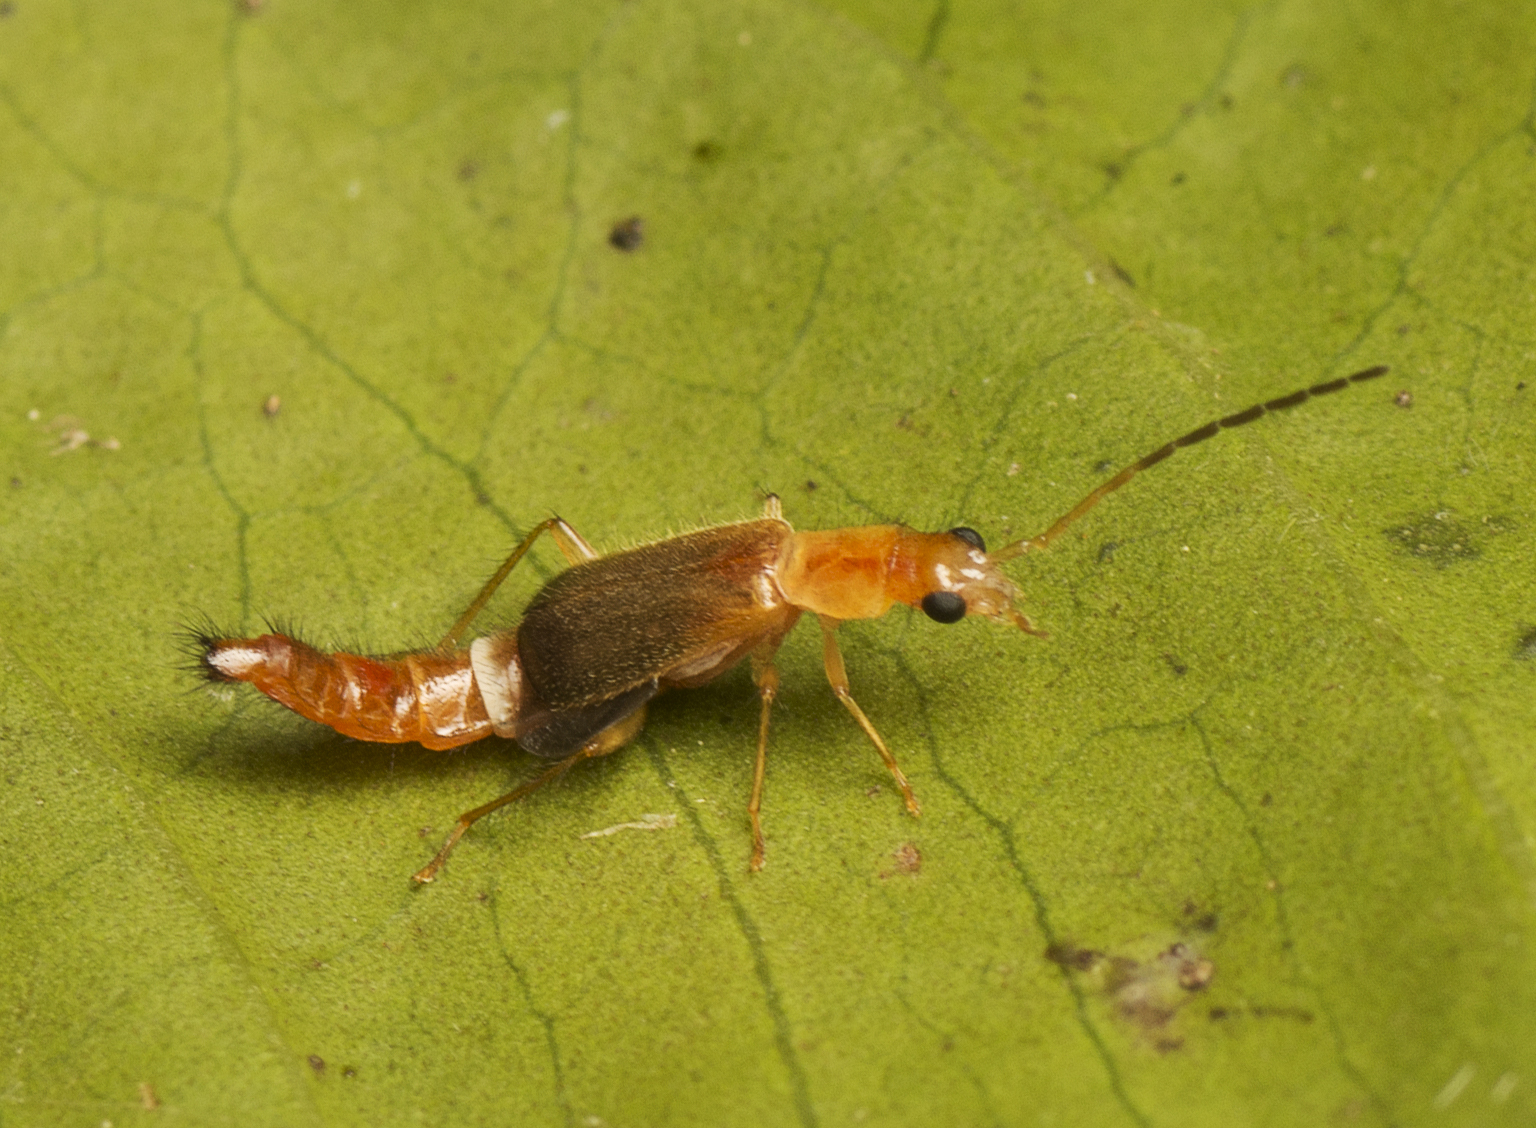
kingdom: Animalia
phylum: Arthropoda
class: Insecta
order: Coleoptera
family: Melyridae
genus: Carphurus
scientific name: Carphurus
